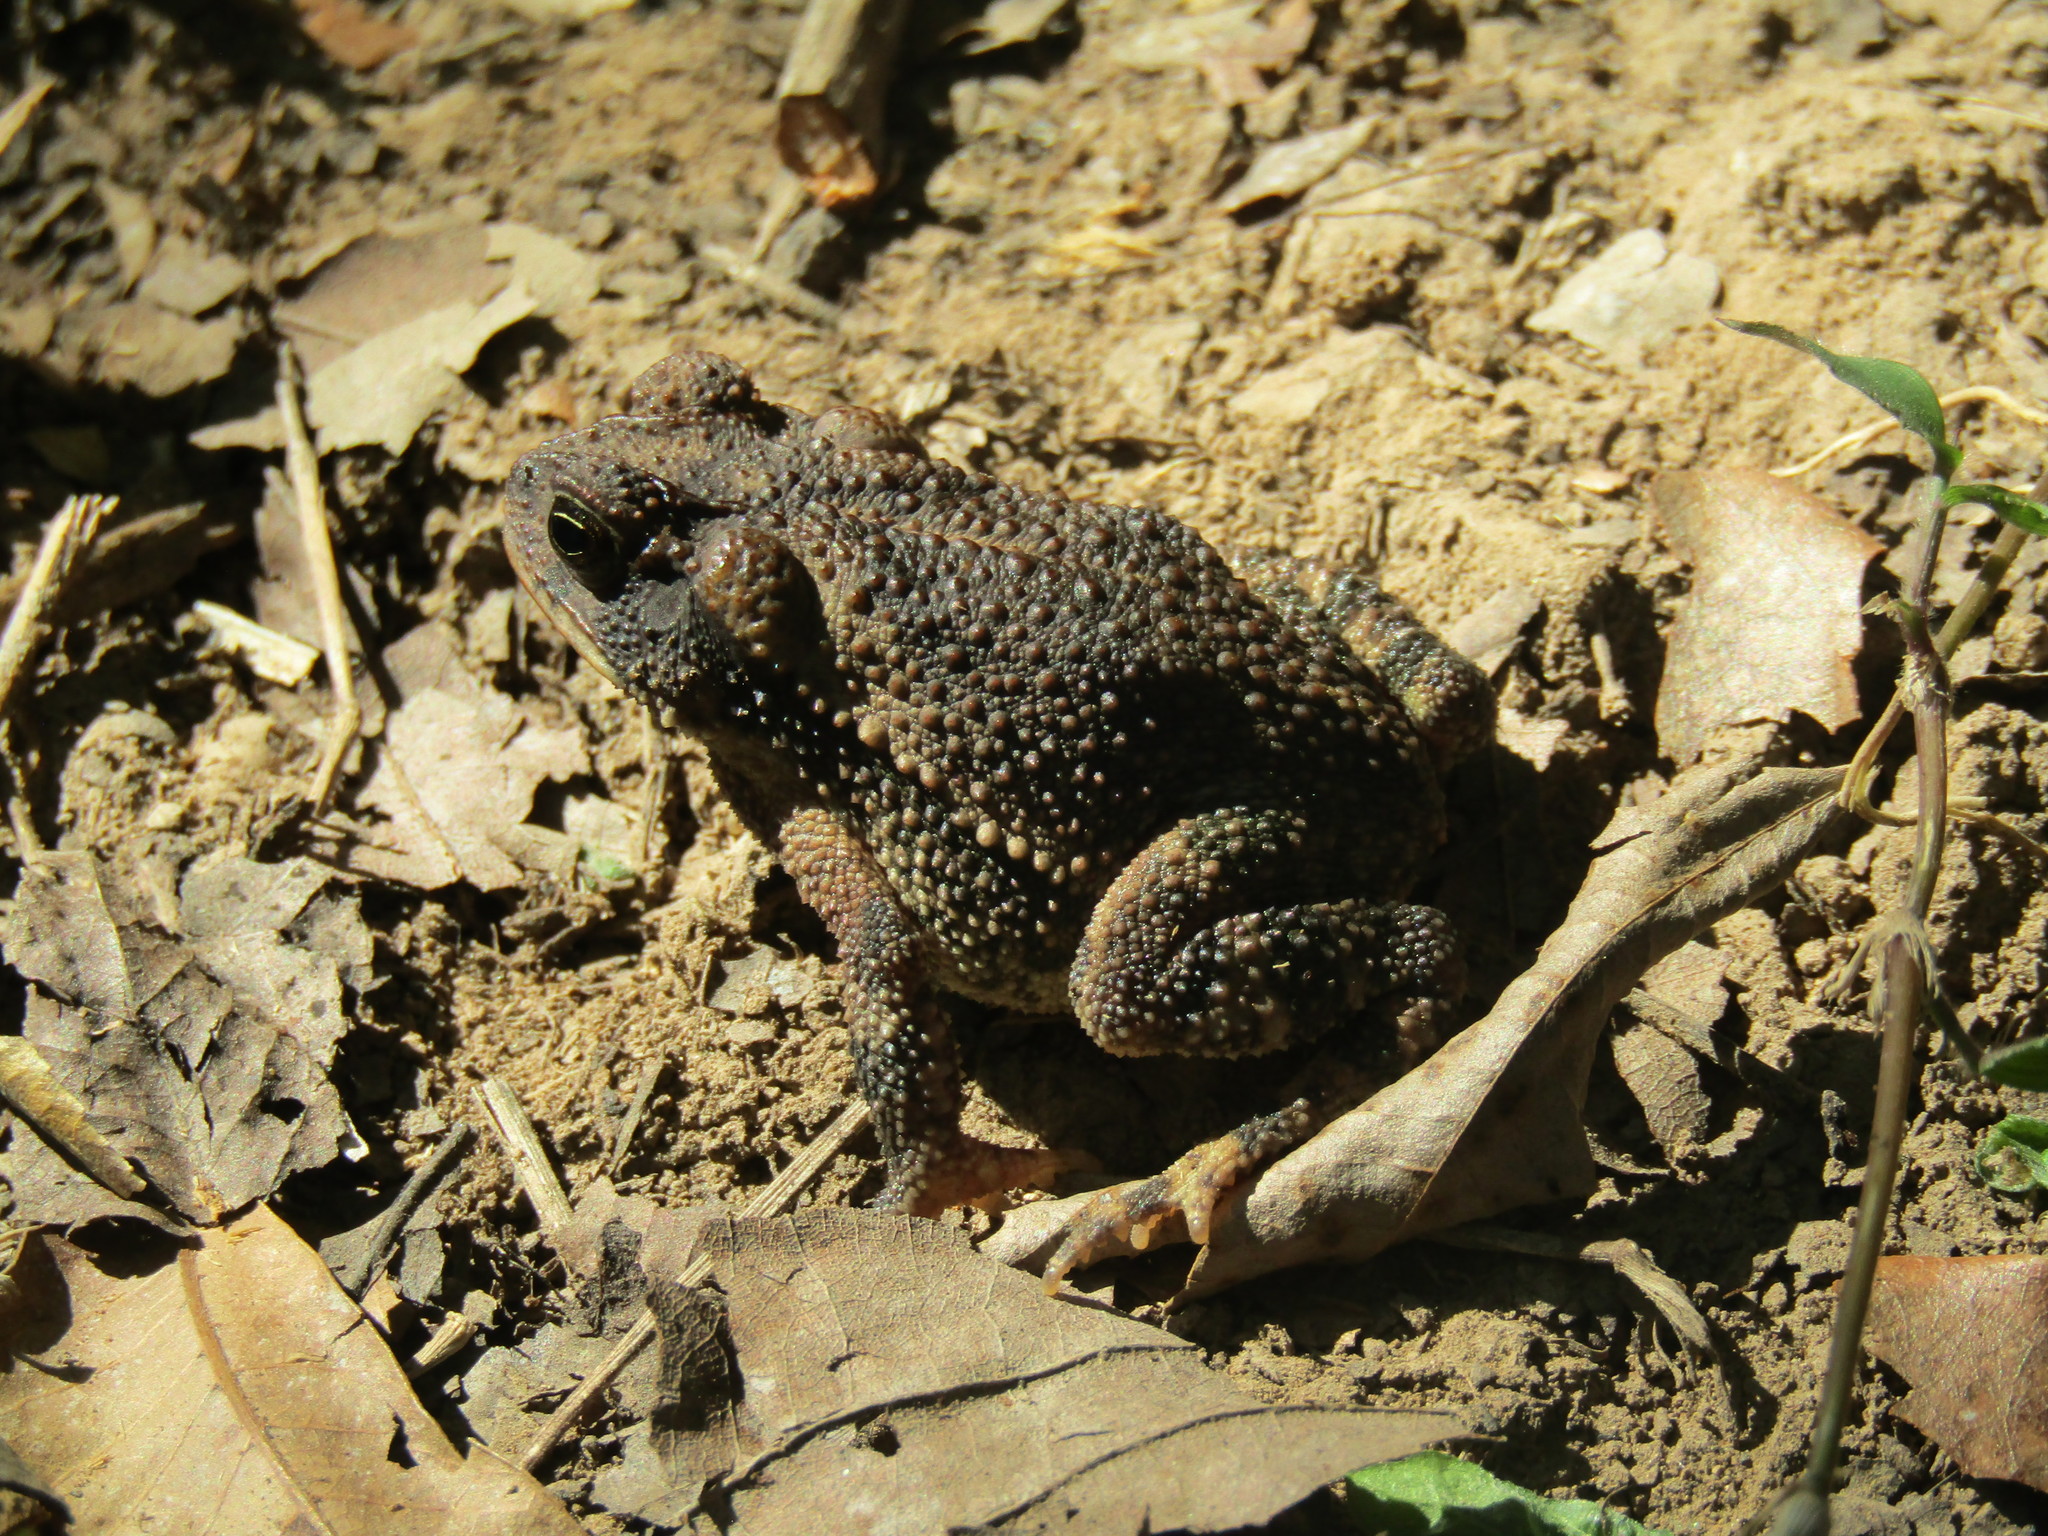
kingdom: Animalia
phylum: Chordata
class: Amphibia
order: Anura
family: Bufonidae
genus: Incilius
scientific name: Incilius nebulifer
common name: Gulf coast toad
